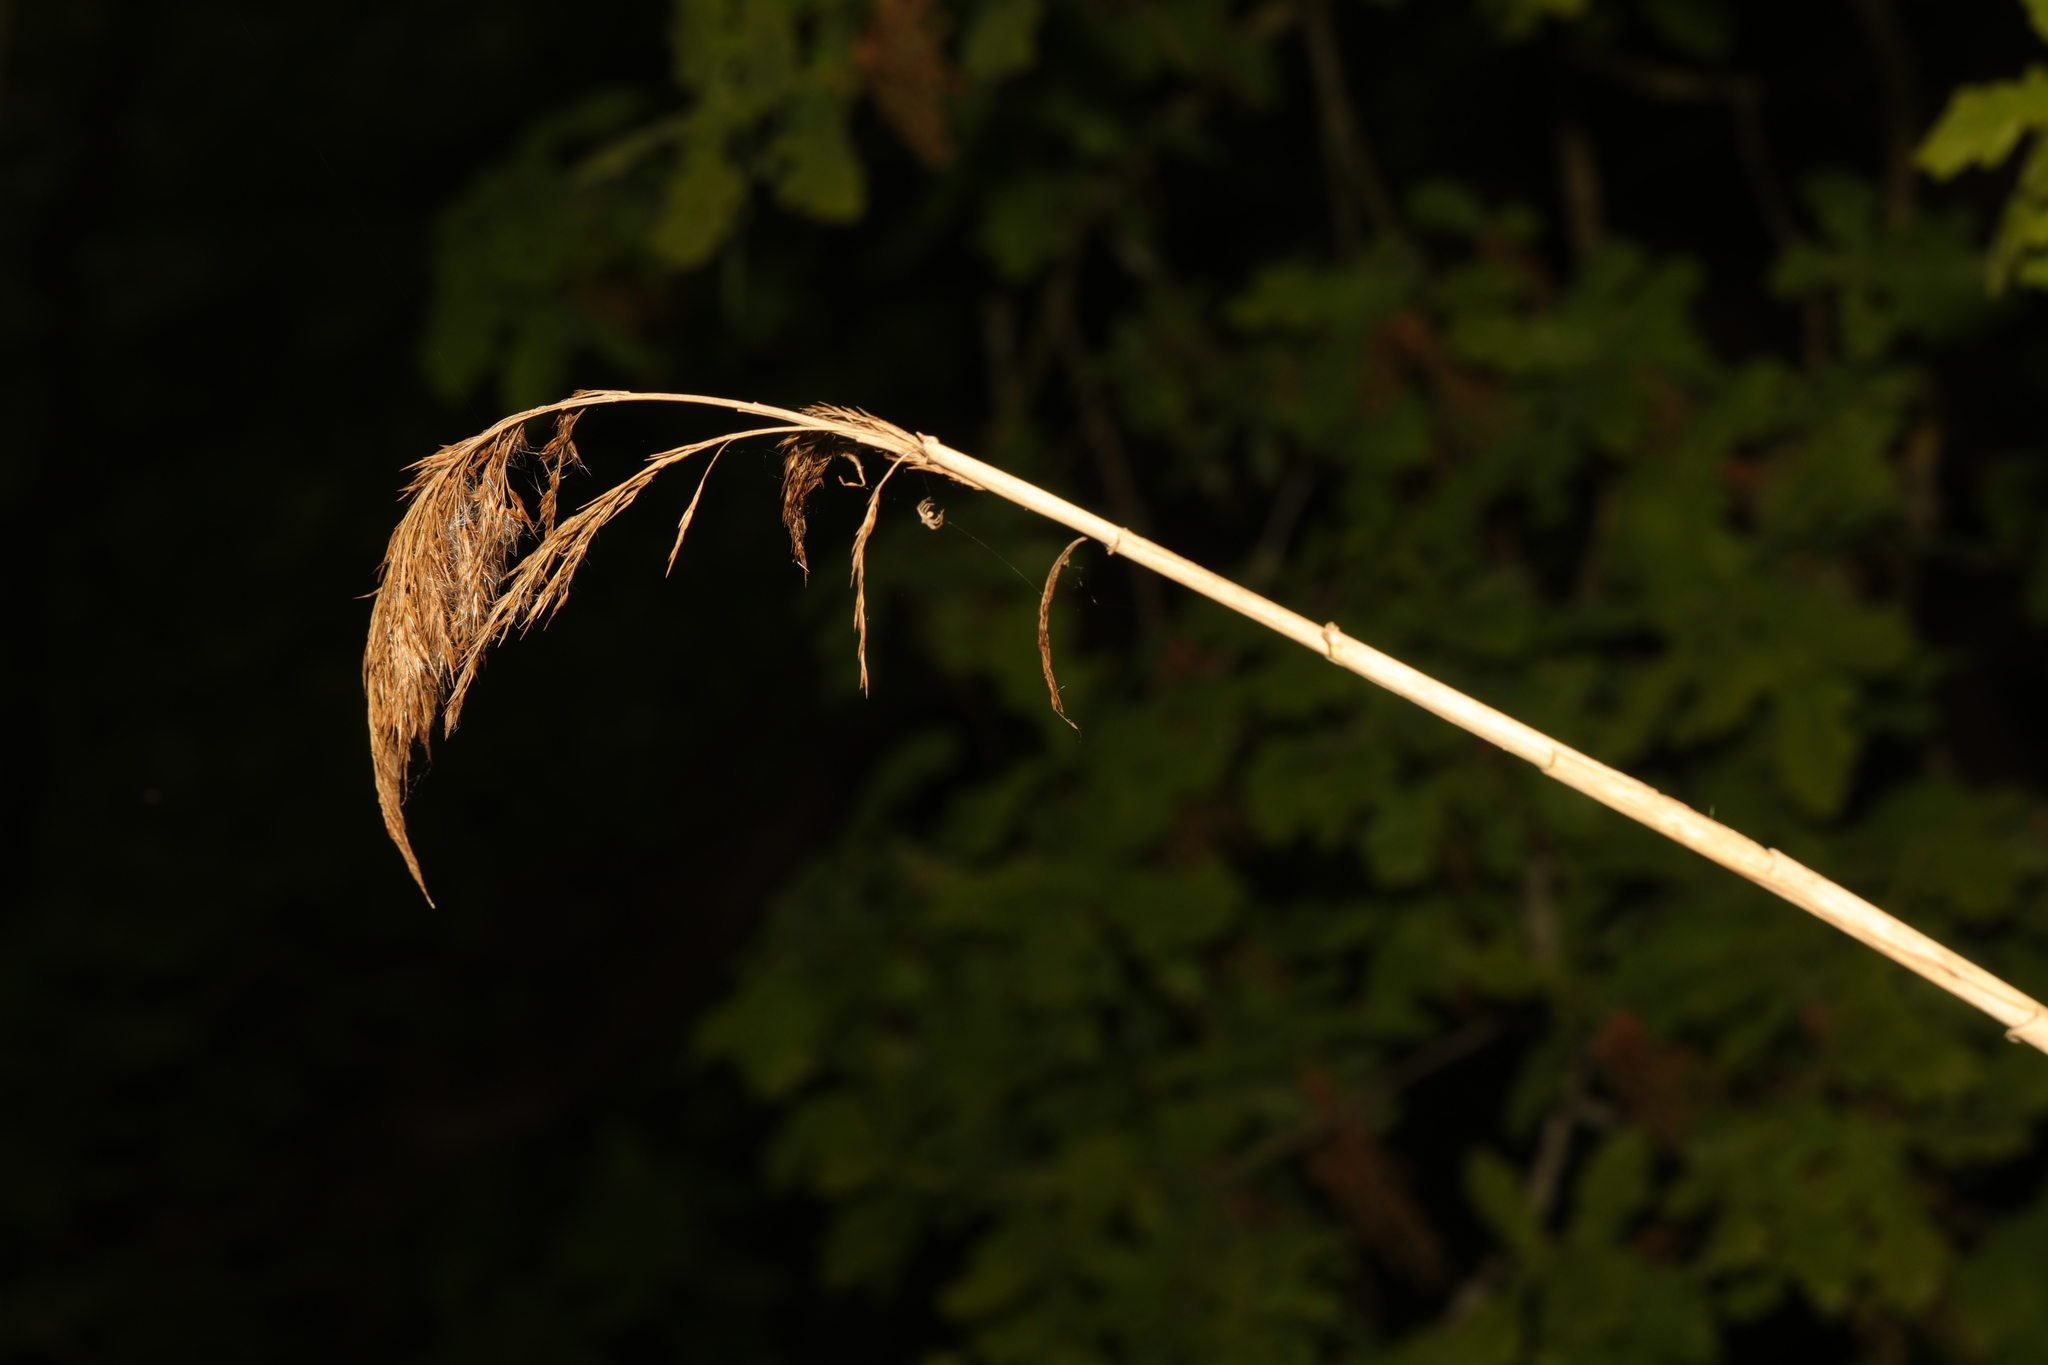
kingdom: Plantae
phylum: Tracheophyta
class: Liliopsida
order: Poales
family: Poaceae
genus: Phragmites
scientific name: Phragmites australis
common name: Common reed
